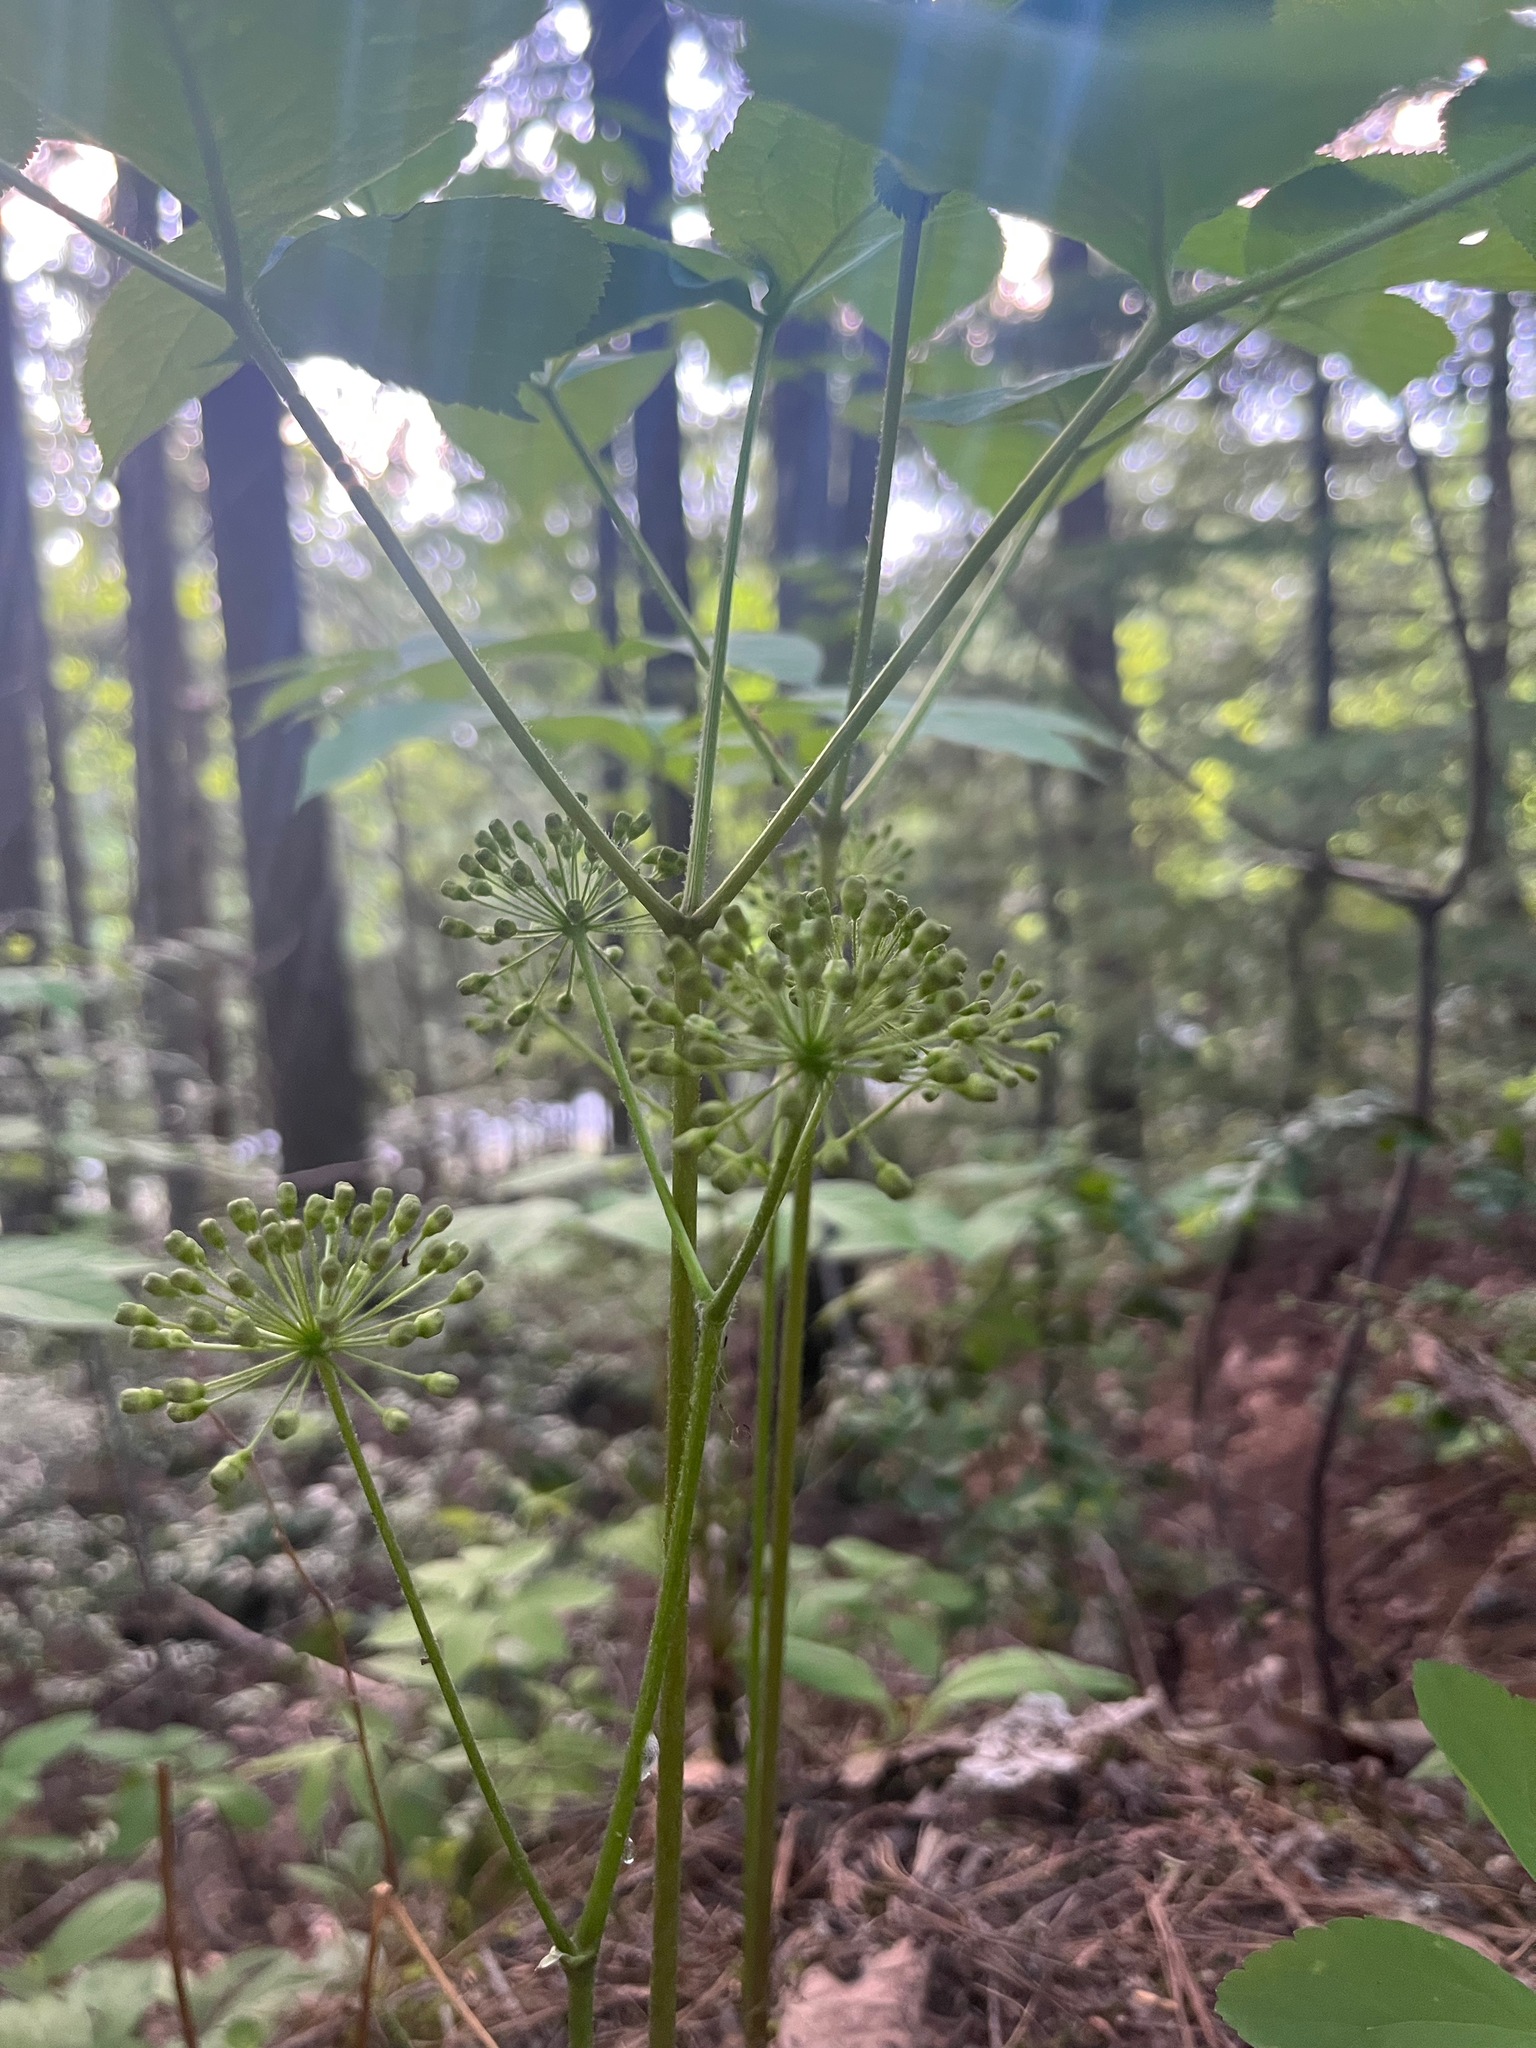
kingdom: Plantae
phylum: Tracheophyta
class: Magnoliopsida
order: Apiales
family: Araliaceae
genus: Aralia
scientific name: Aralia nudicaulis
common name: Wild sarsaparilla
